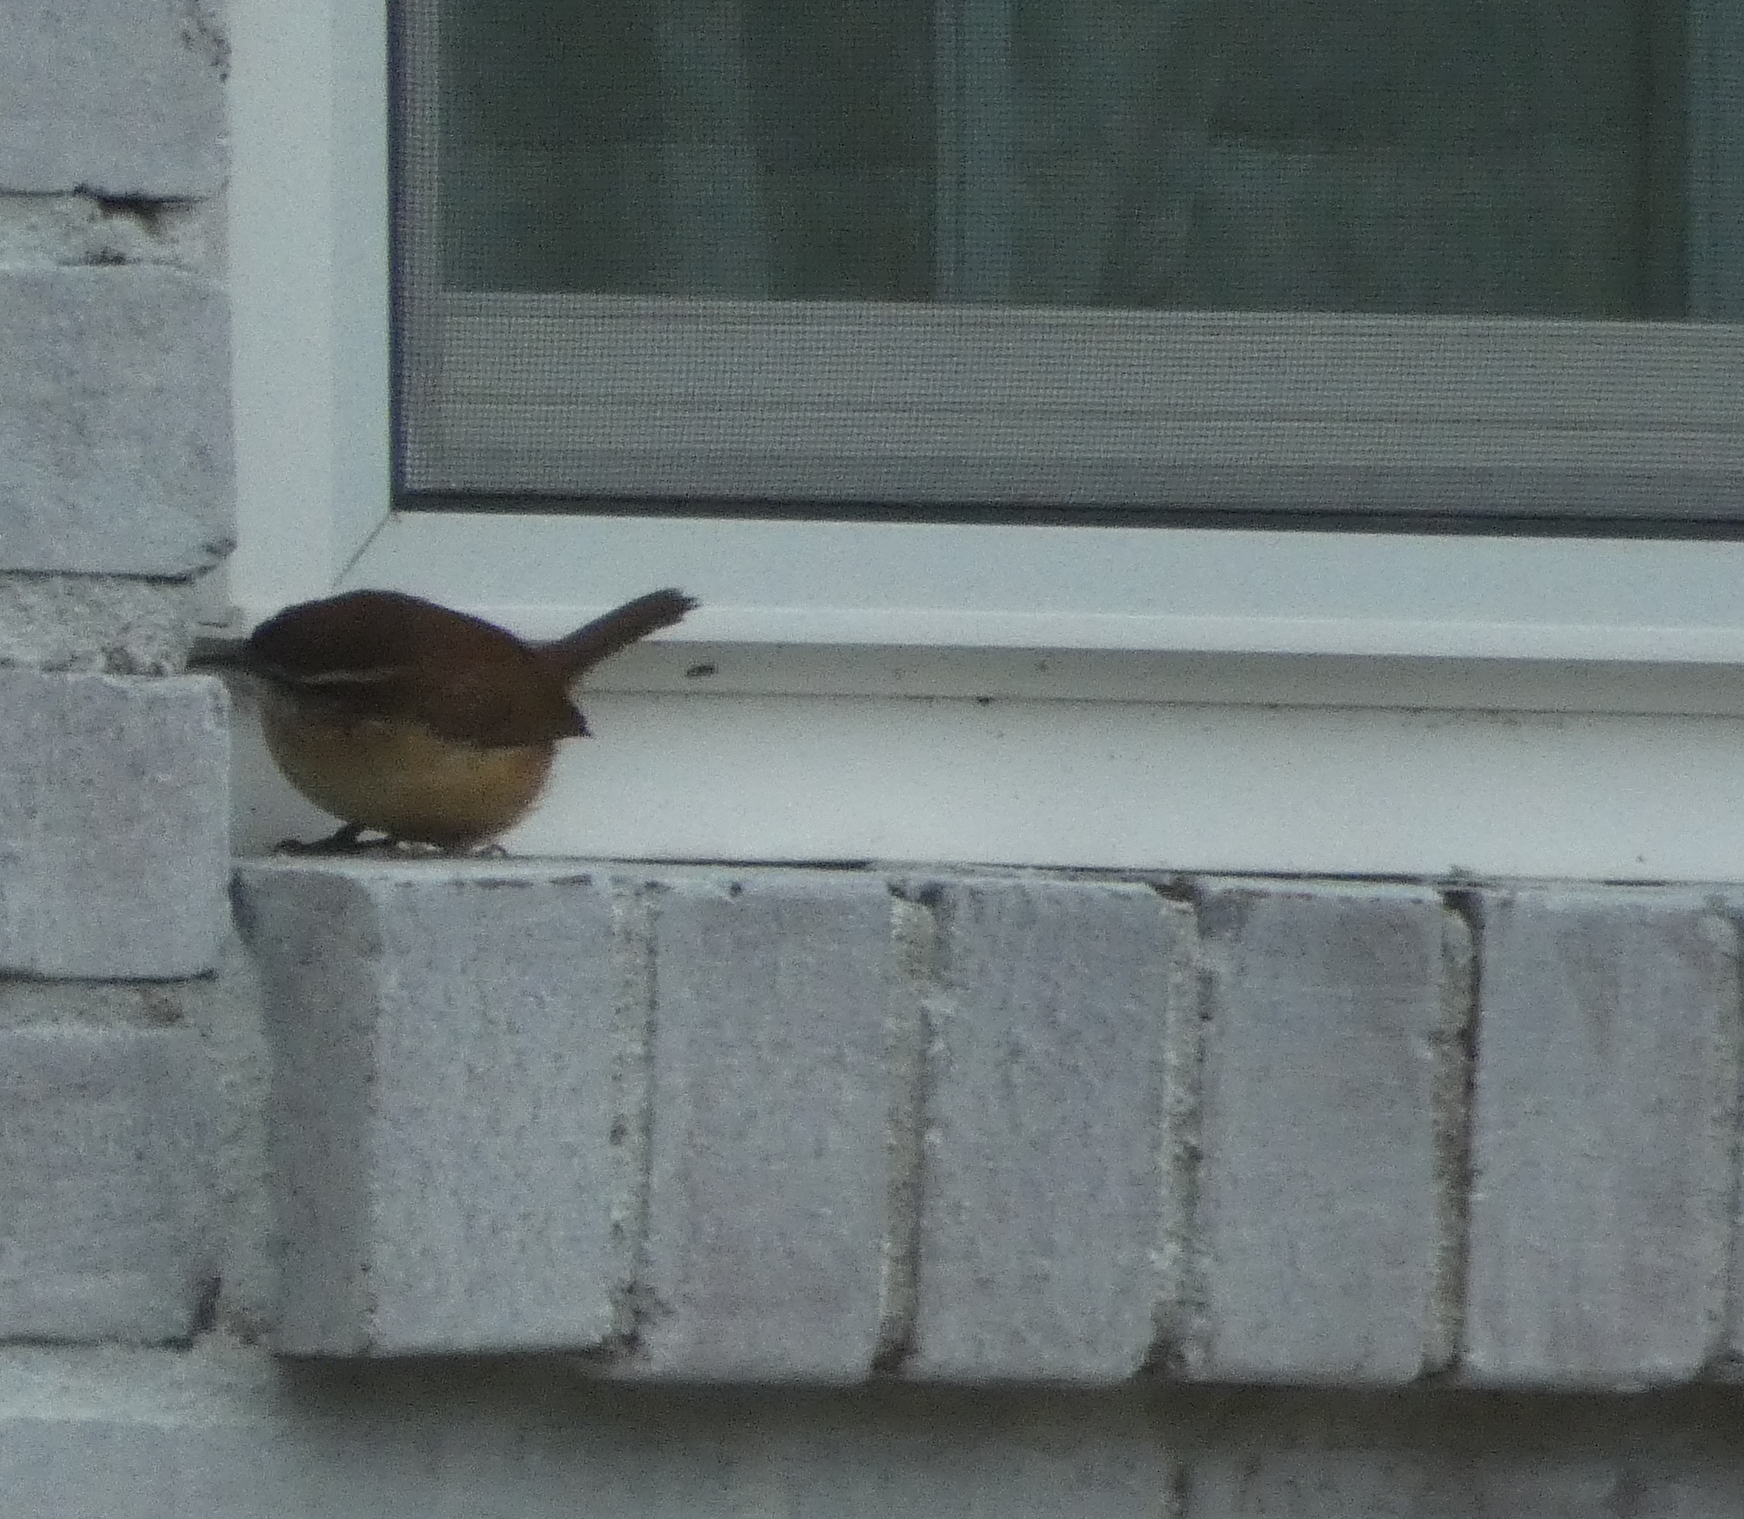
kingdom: Animalia
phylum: Chordata
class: Aves
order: Passeriformes
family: Troglodytidae
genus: Thryothorus
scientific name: Thryothorus ludovicianus
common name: Carolina wren
